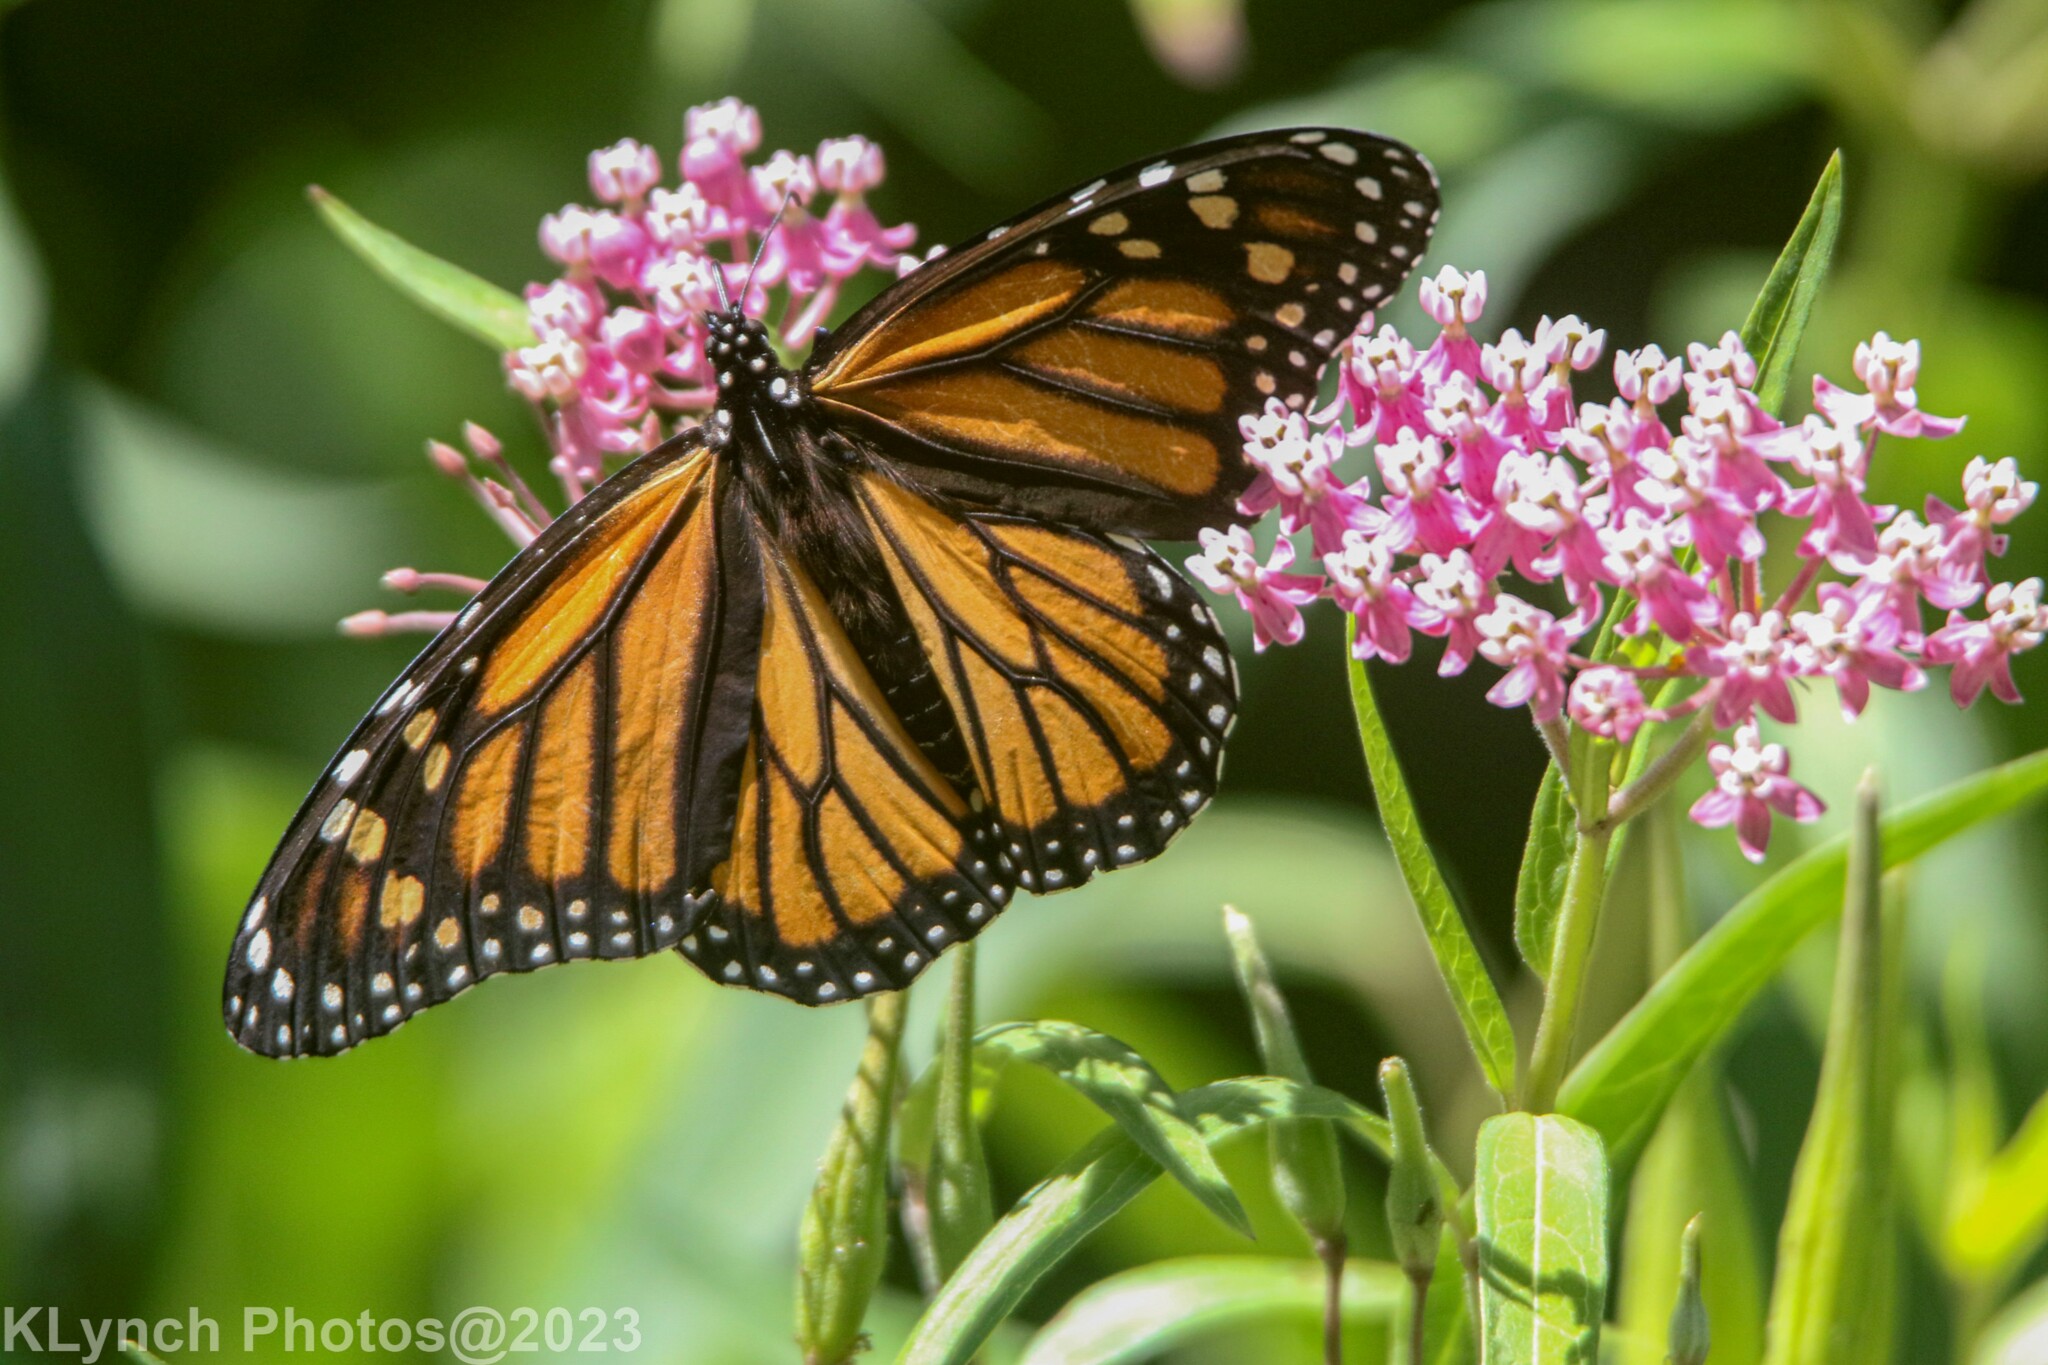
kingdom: Animalia
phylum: Arthropoda
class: Insecta
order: Lepidoptera
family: Nymphalidae
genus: Danaus
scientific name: Danaus plexippus
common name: Monarch
